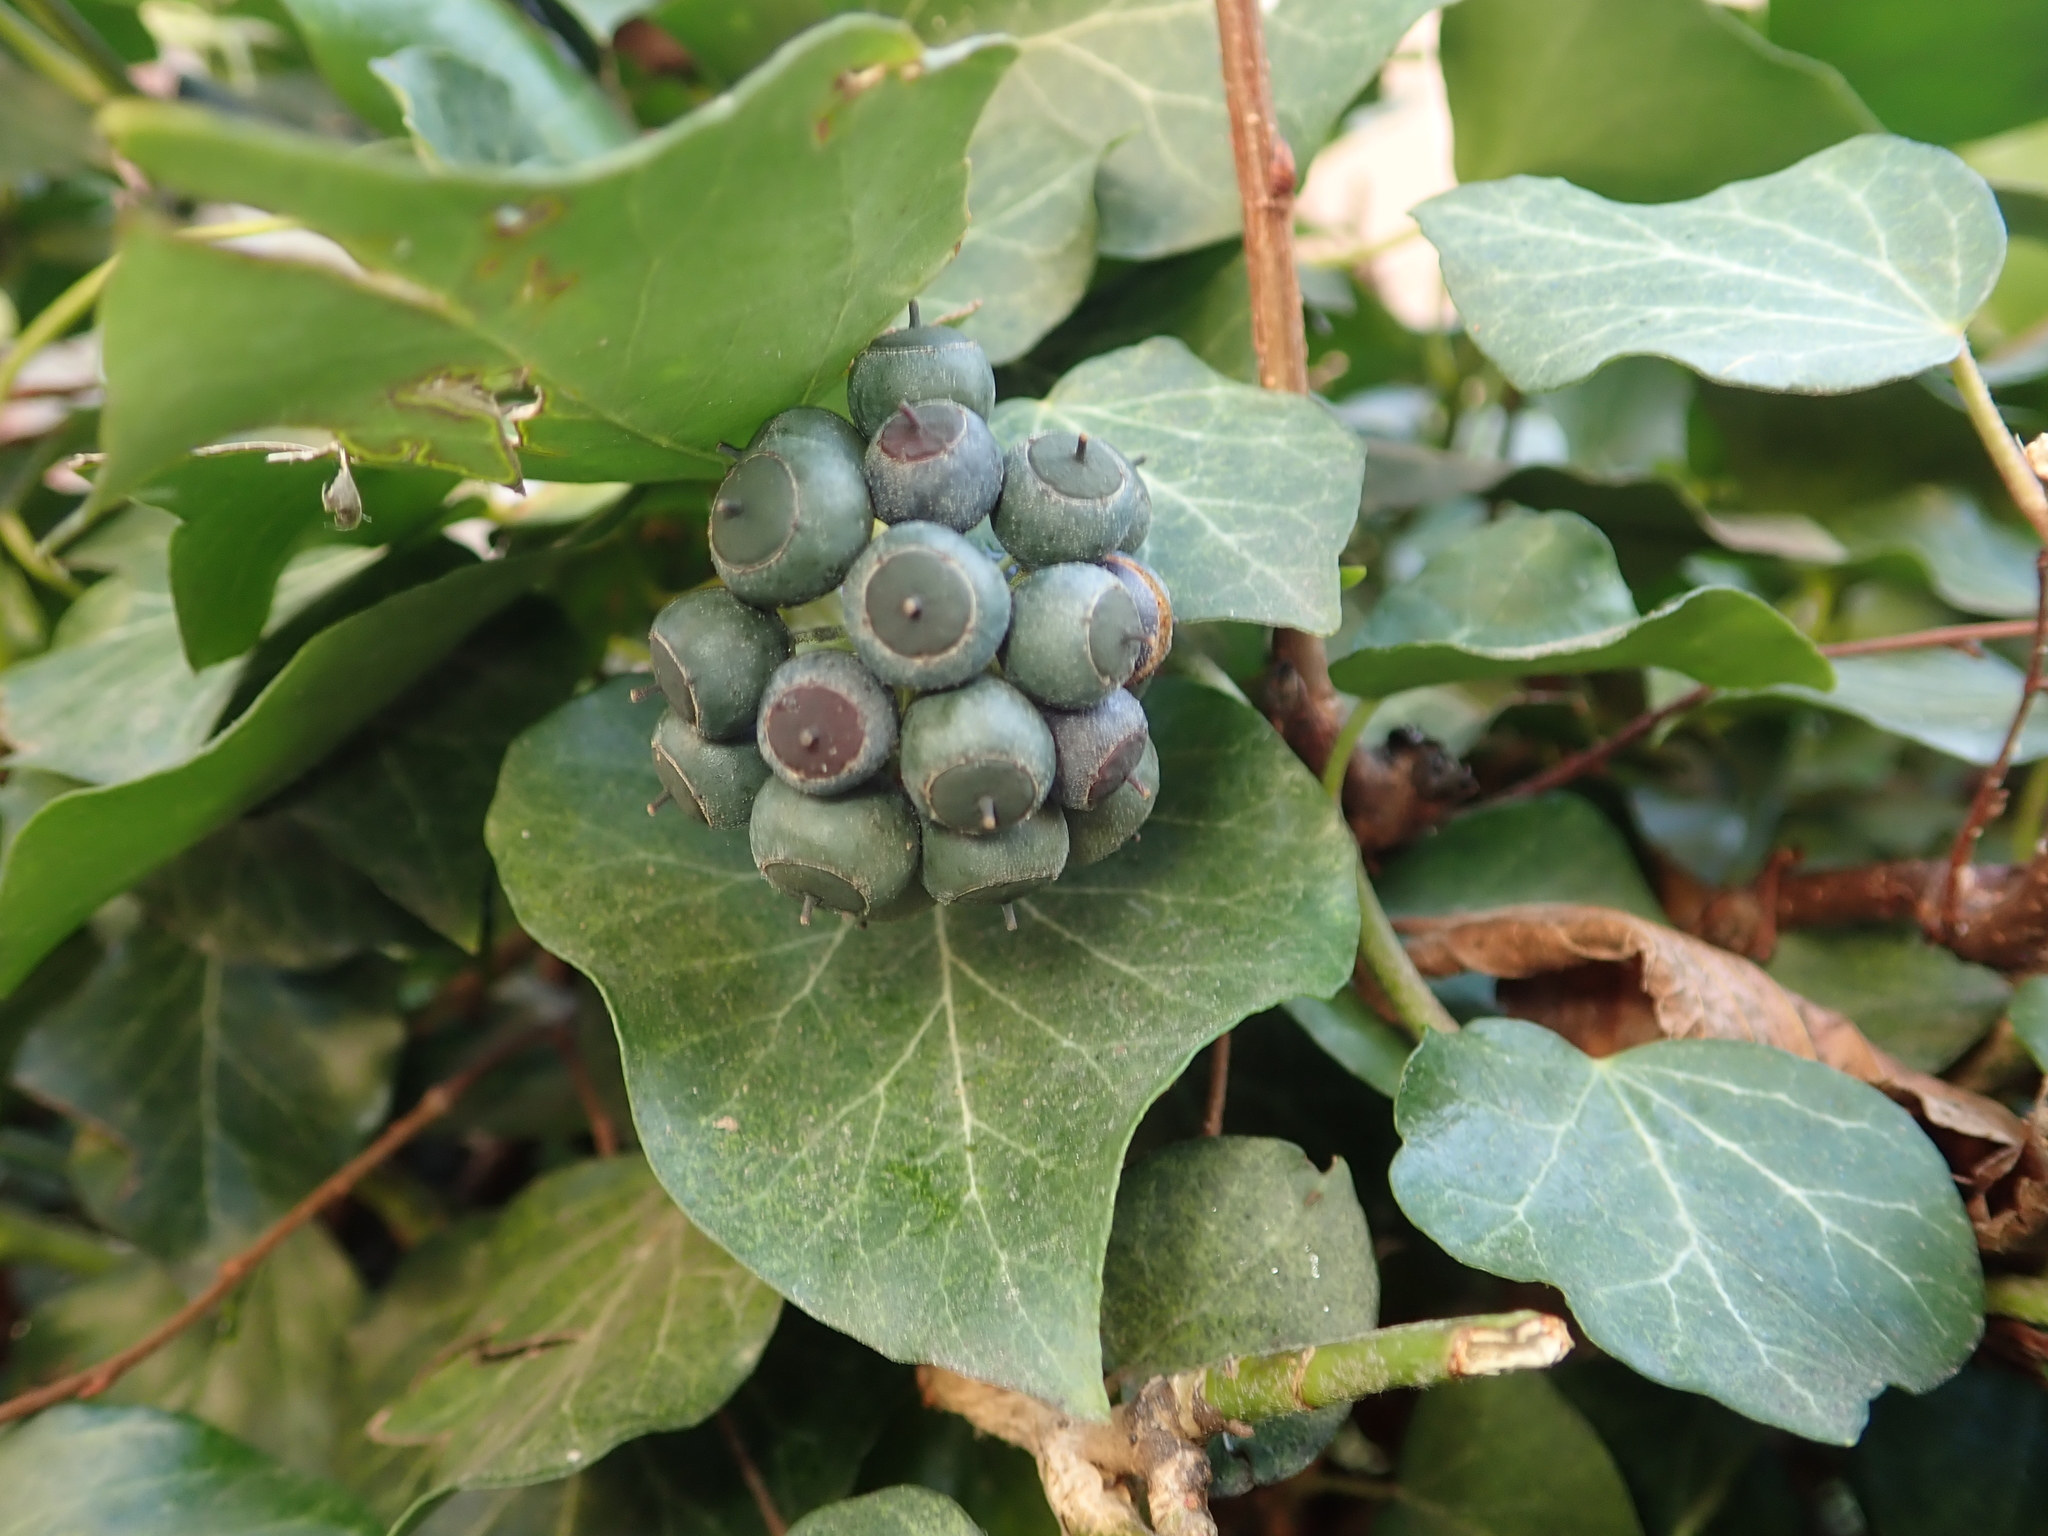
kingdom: Plantae
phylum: Tracheophyta
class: Magnoliopsida
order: Apiales
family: Araliaceae
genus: Hedera
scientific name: Hedera helix
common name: Ivy
